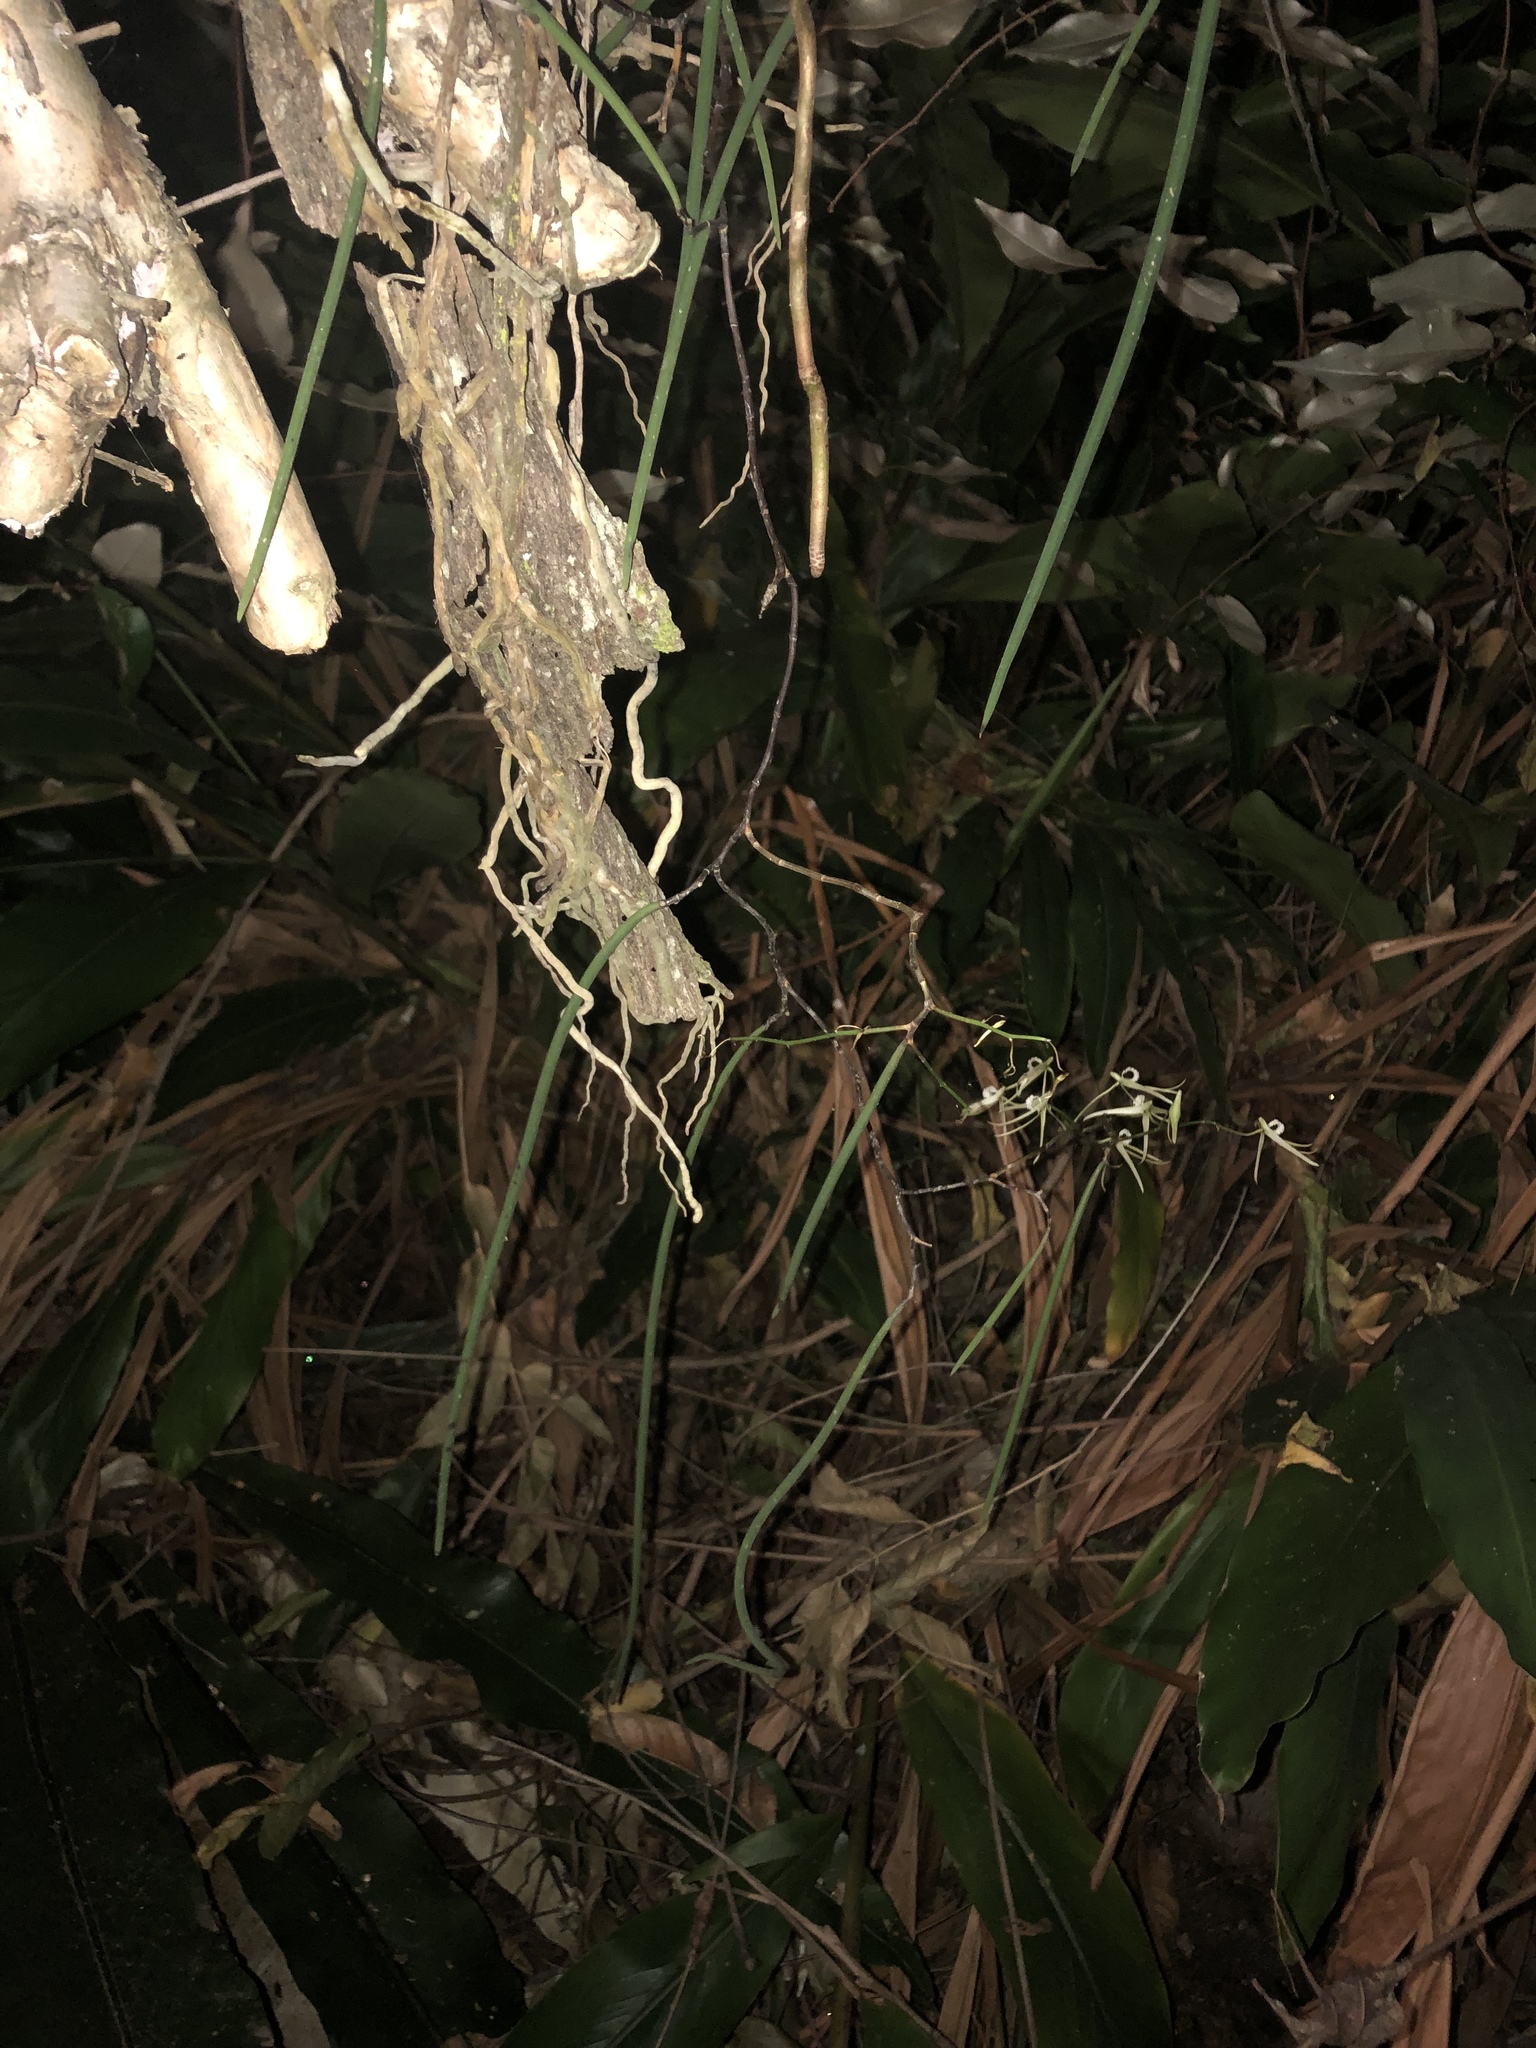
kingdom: Plantae
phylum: Tracheophyta
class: Liliopsida
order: Asparagales
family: Orchidaceae
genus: Dendrobium
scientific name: Dendrobium teretifolium
